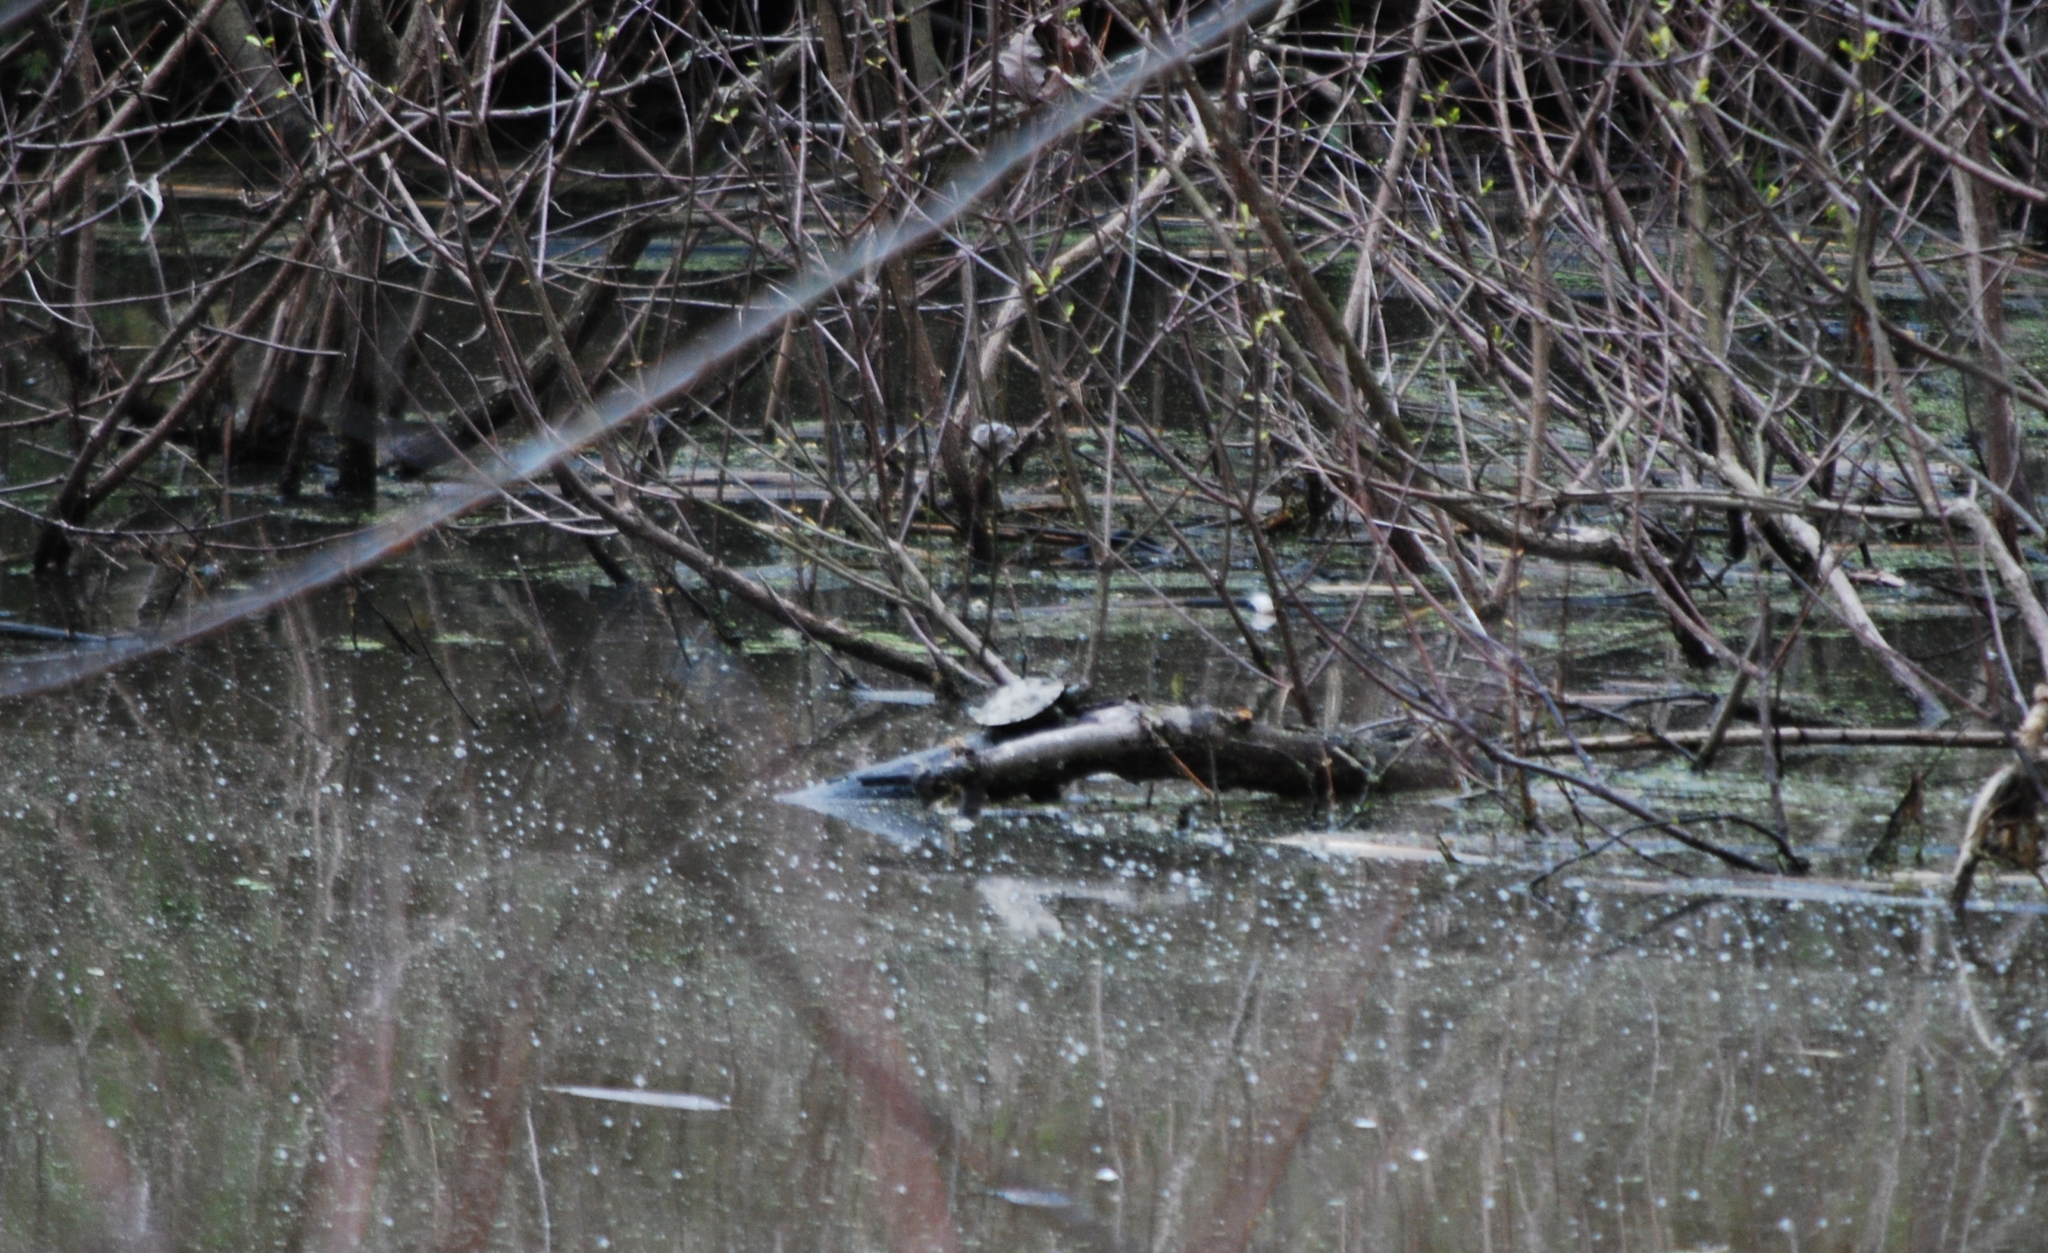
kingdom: Animalia
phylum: Chordata
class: Testudines
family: Emydidae
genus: Graptemys
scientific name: Graptemys geographica
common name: Common map turtle
